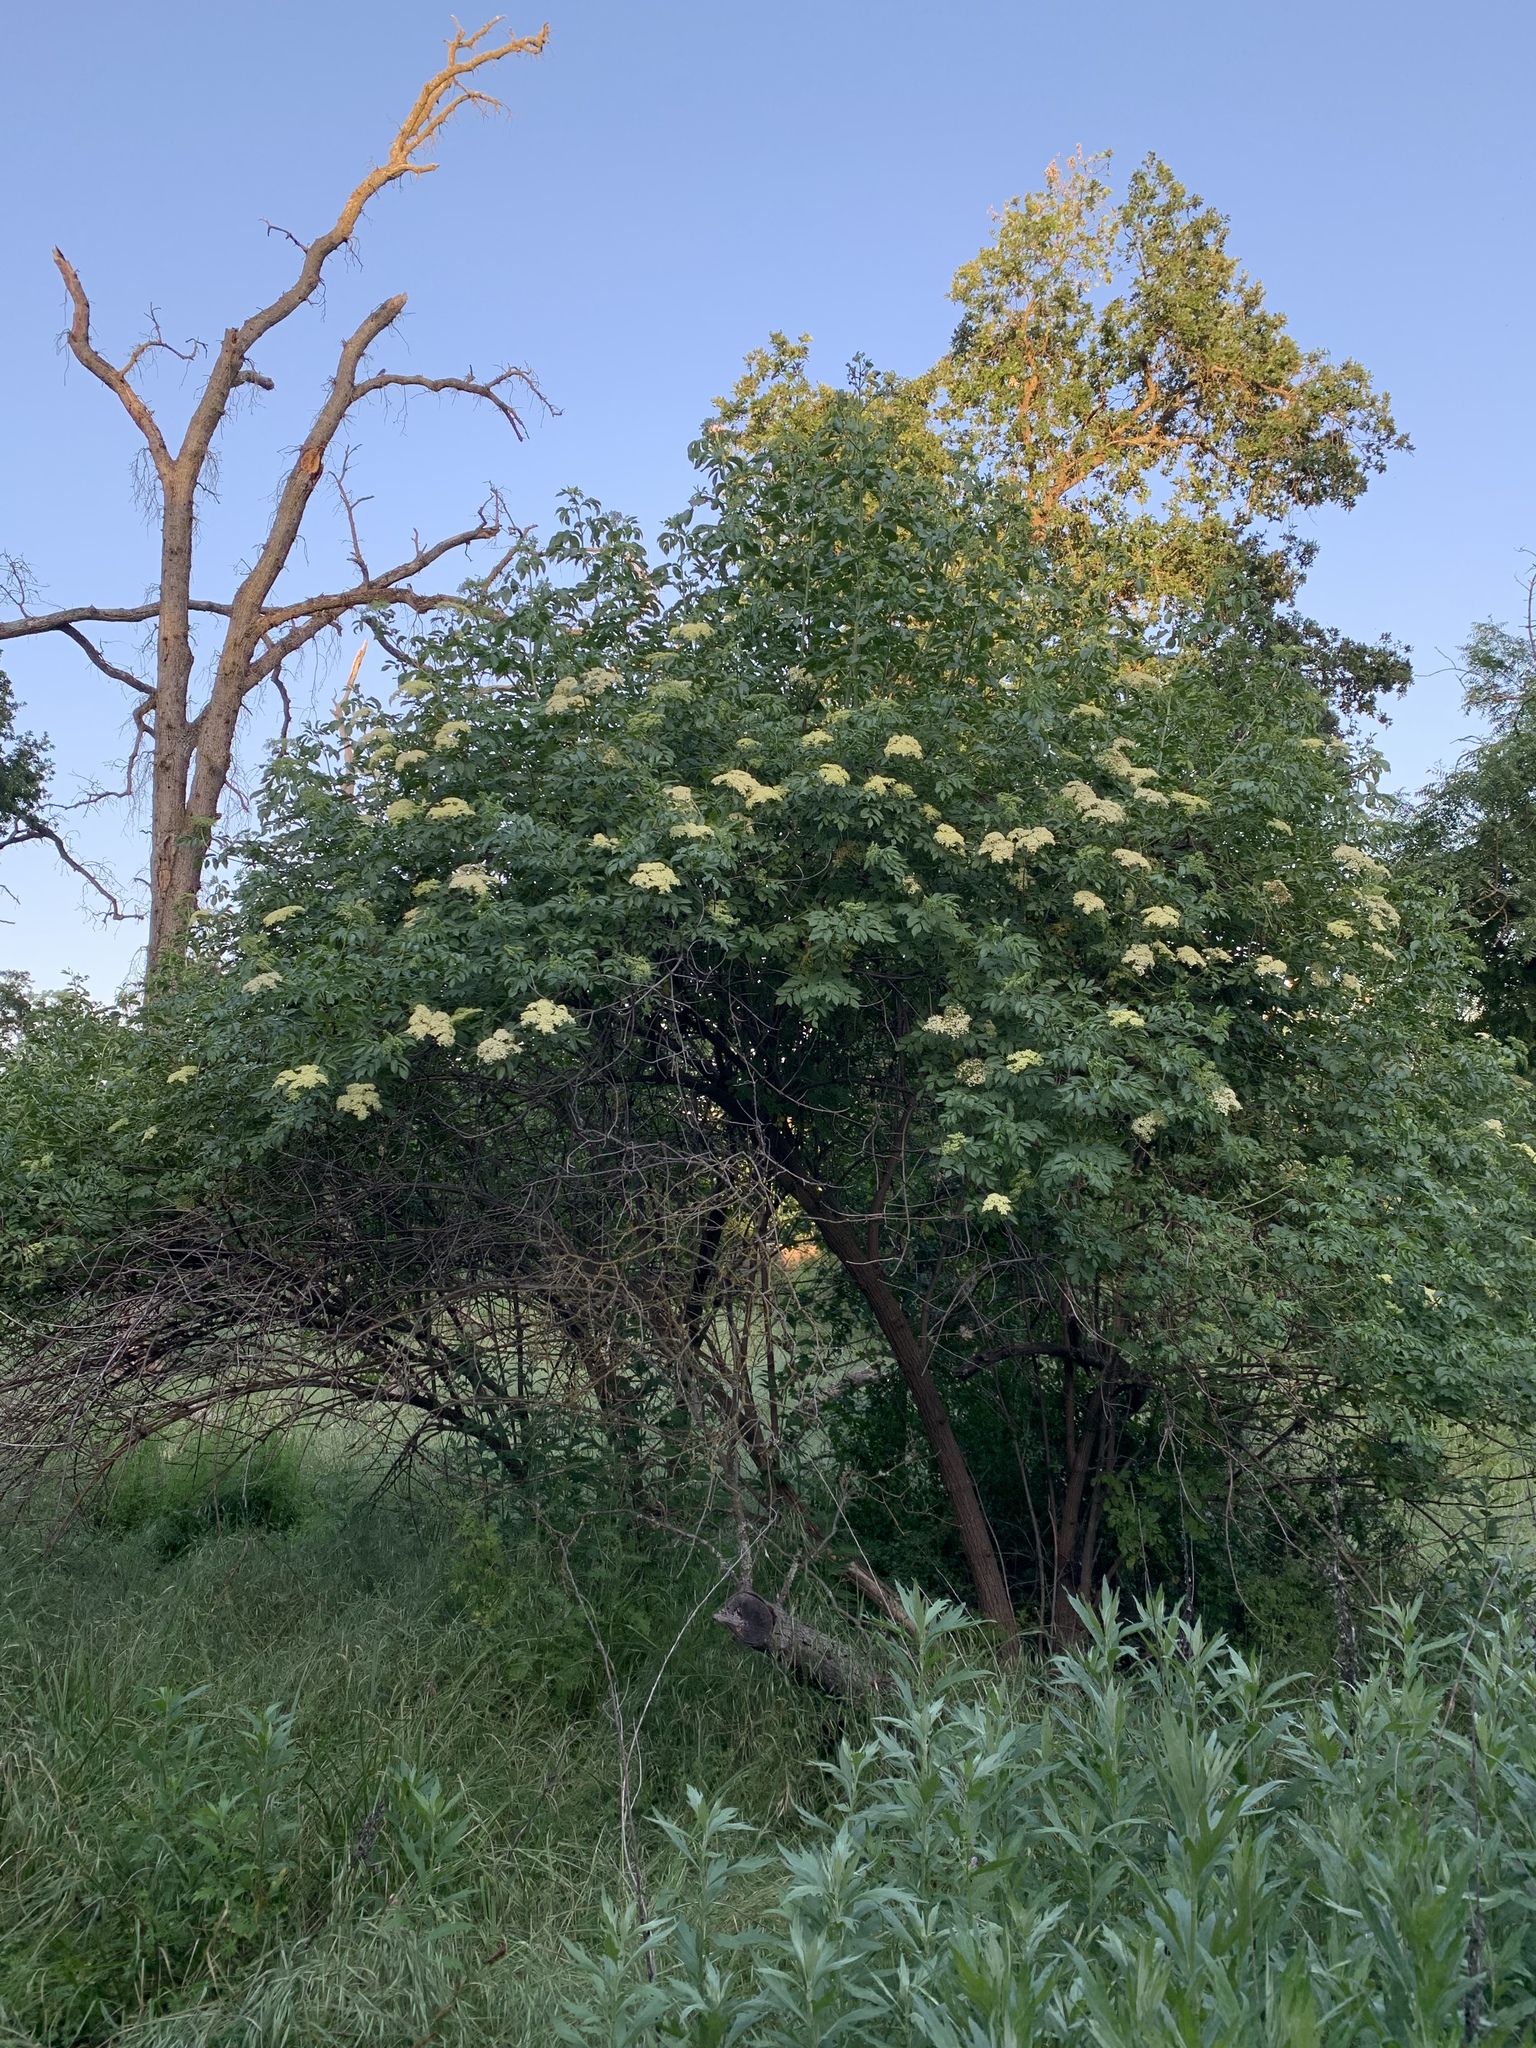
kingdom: Plantae
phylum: Tracheophyta
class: Magnoliopsida
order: Dipsacales
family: Viburnaceae
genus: Sambucus
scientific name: Sambucus cerulea
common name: Blue elder
